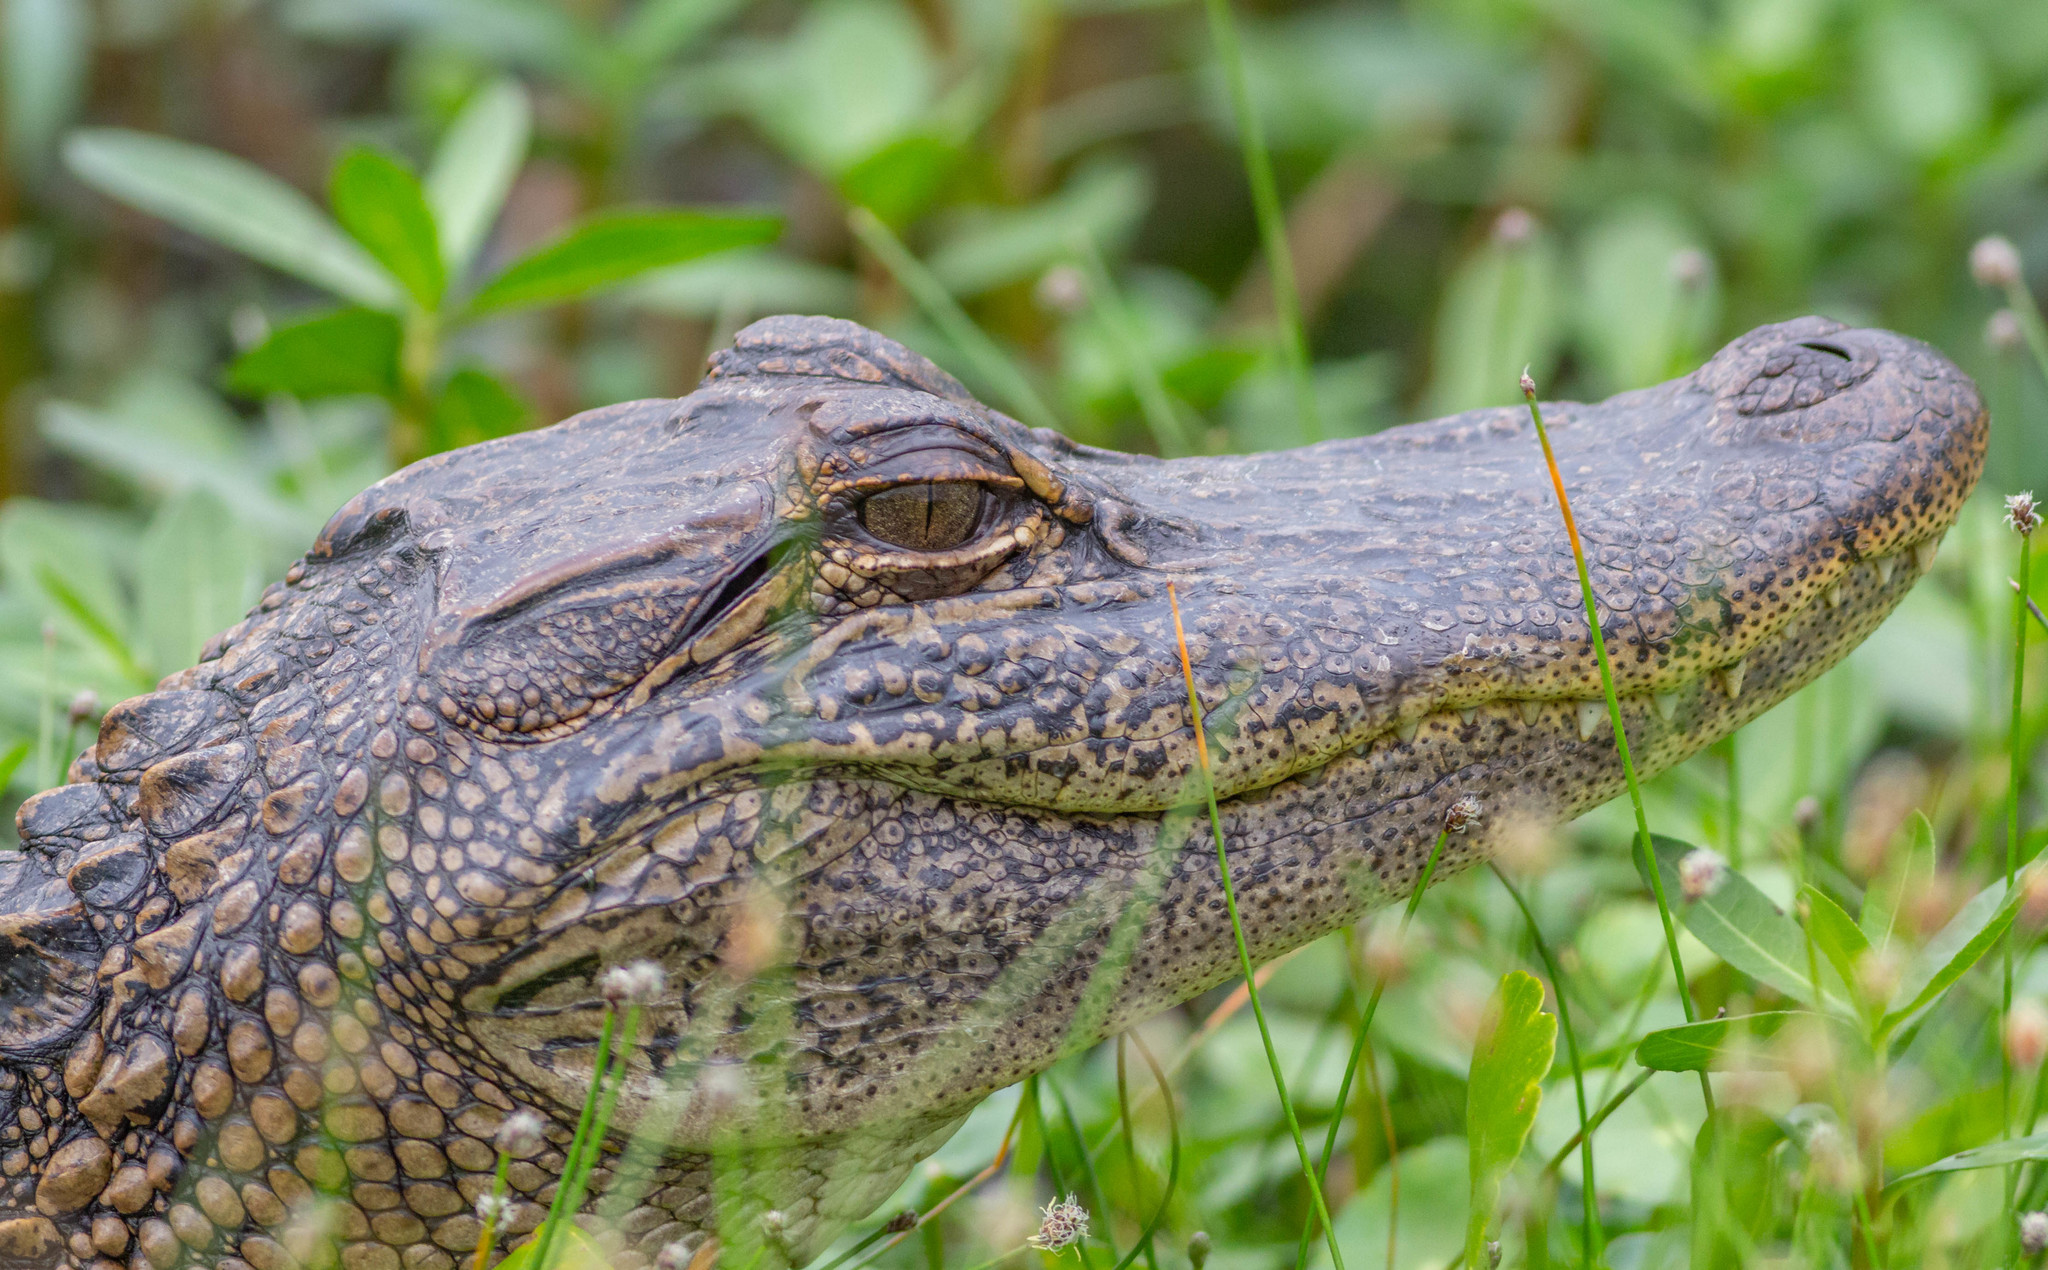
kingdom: Animalia
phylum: Chordata
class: Crocodylia
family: Alligatoridae
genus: Alligator
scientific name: Alligator mississippiensis
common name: American alligator
